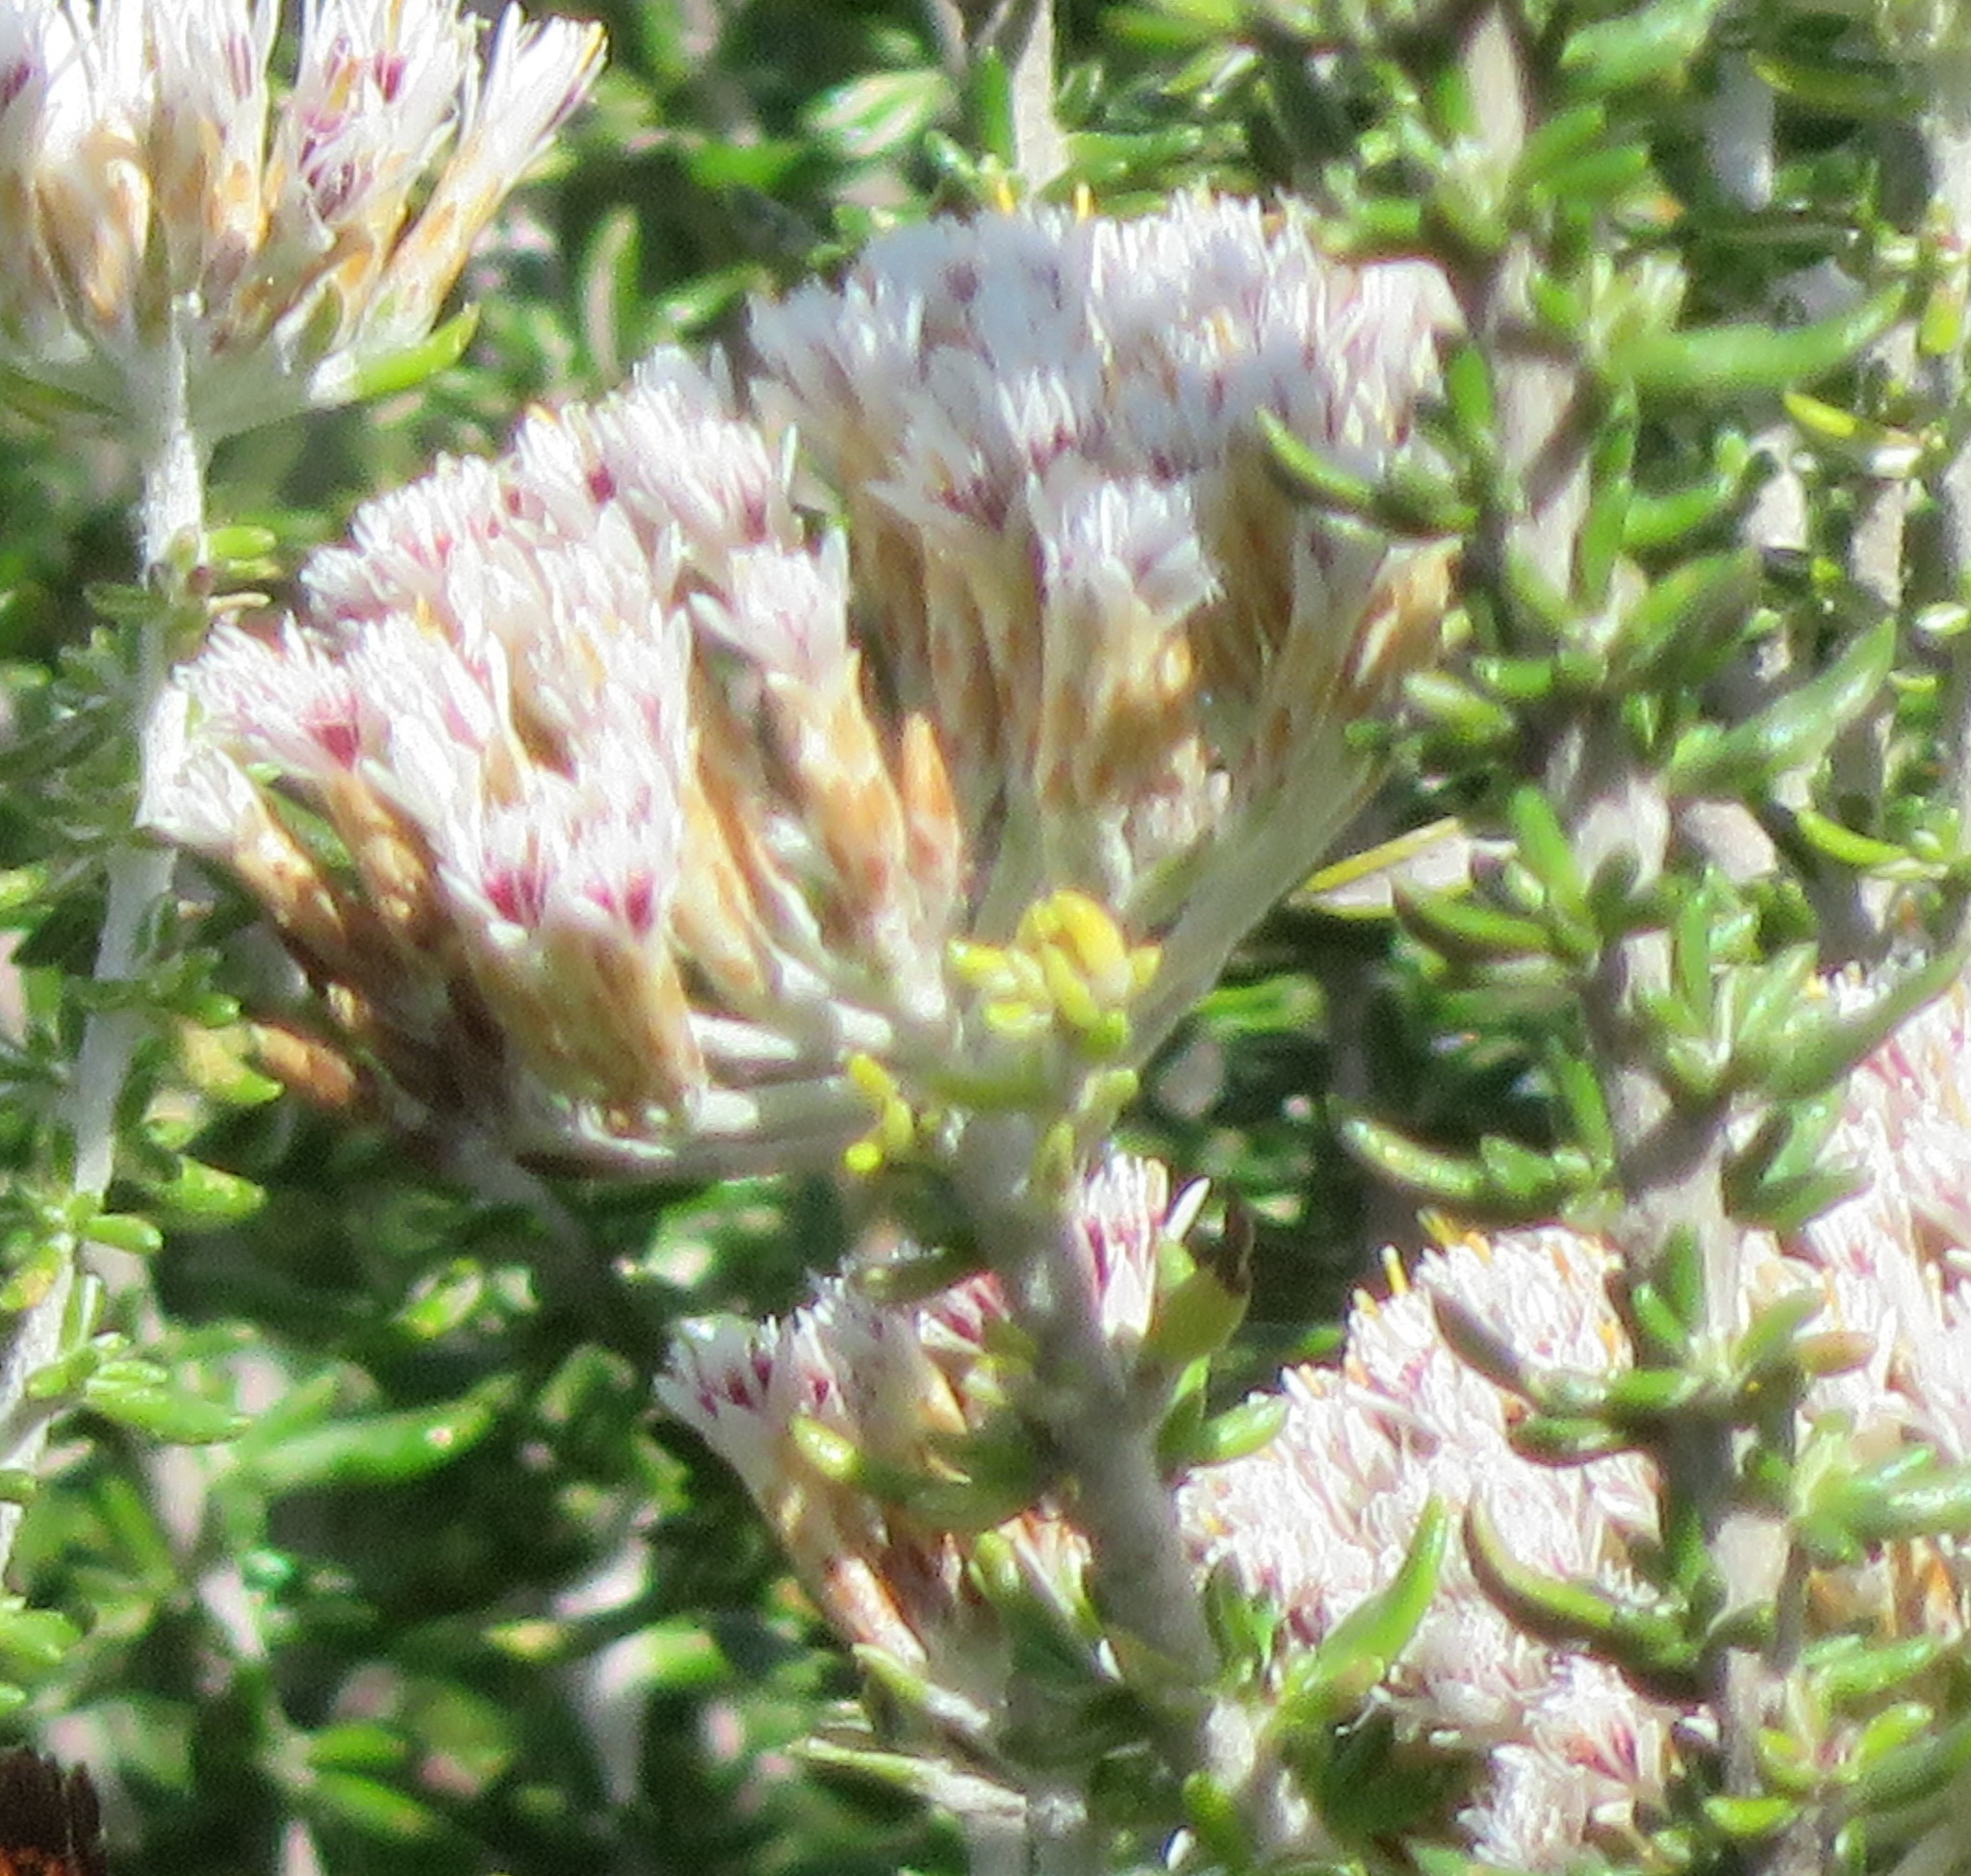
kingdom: Plantae
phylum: Tracheophyta
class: Magnoliopsida
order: Asterales
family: Asteraceae
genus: Metalasia
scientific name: Metalasia muricata
